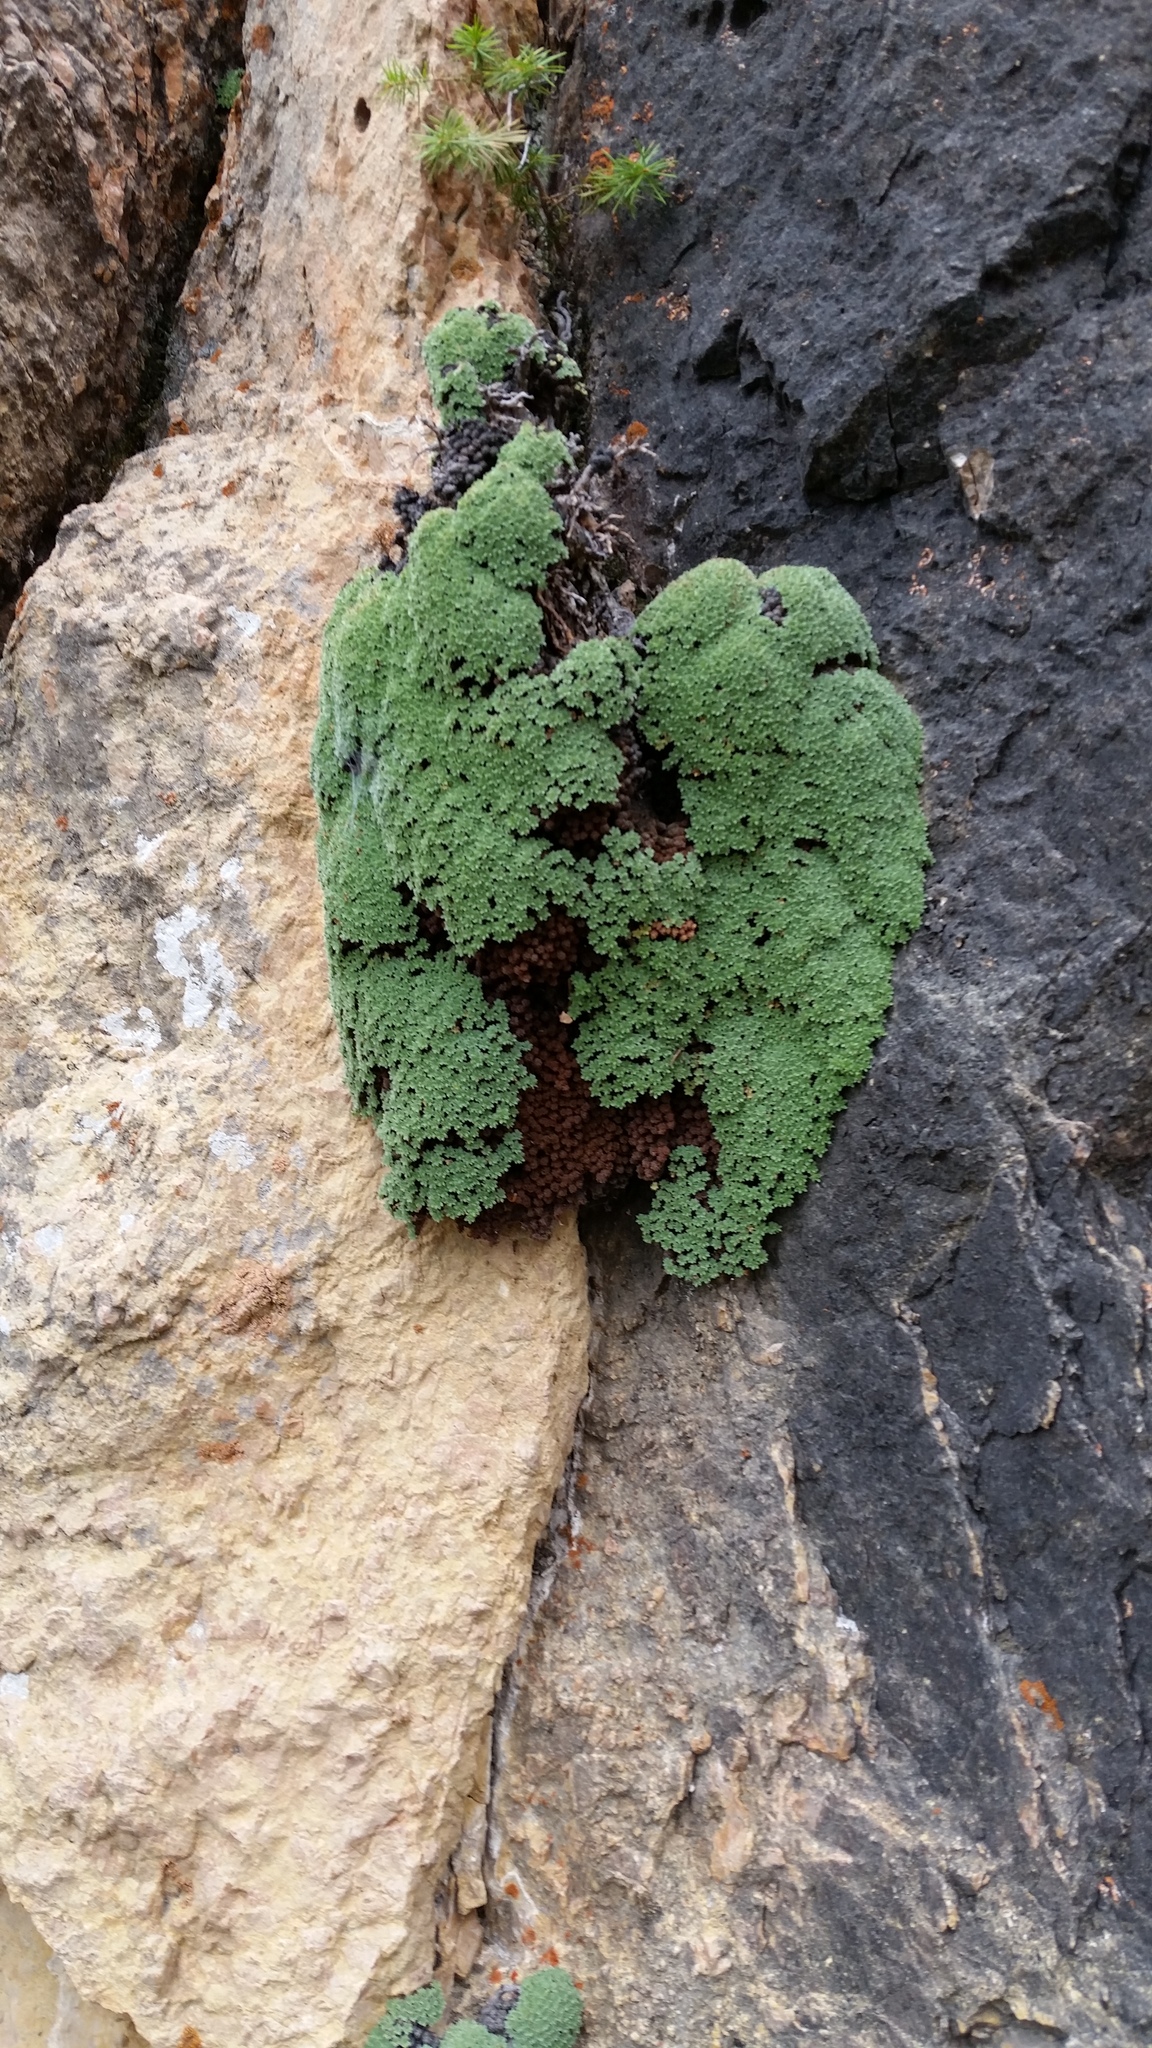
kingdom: Plantae
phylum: Tracheophyta
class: Magnoliopsida
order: Rosales
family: Rosaceae
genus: Kelseya
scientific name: Kelseya uniflora
